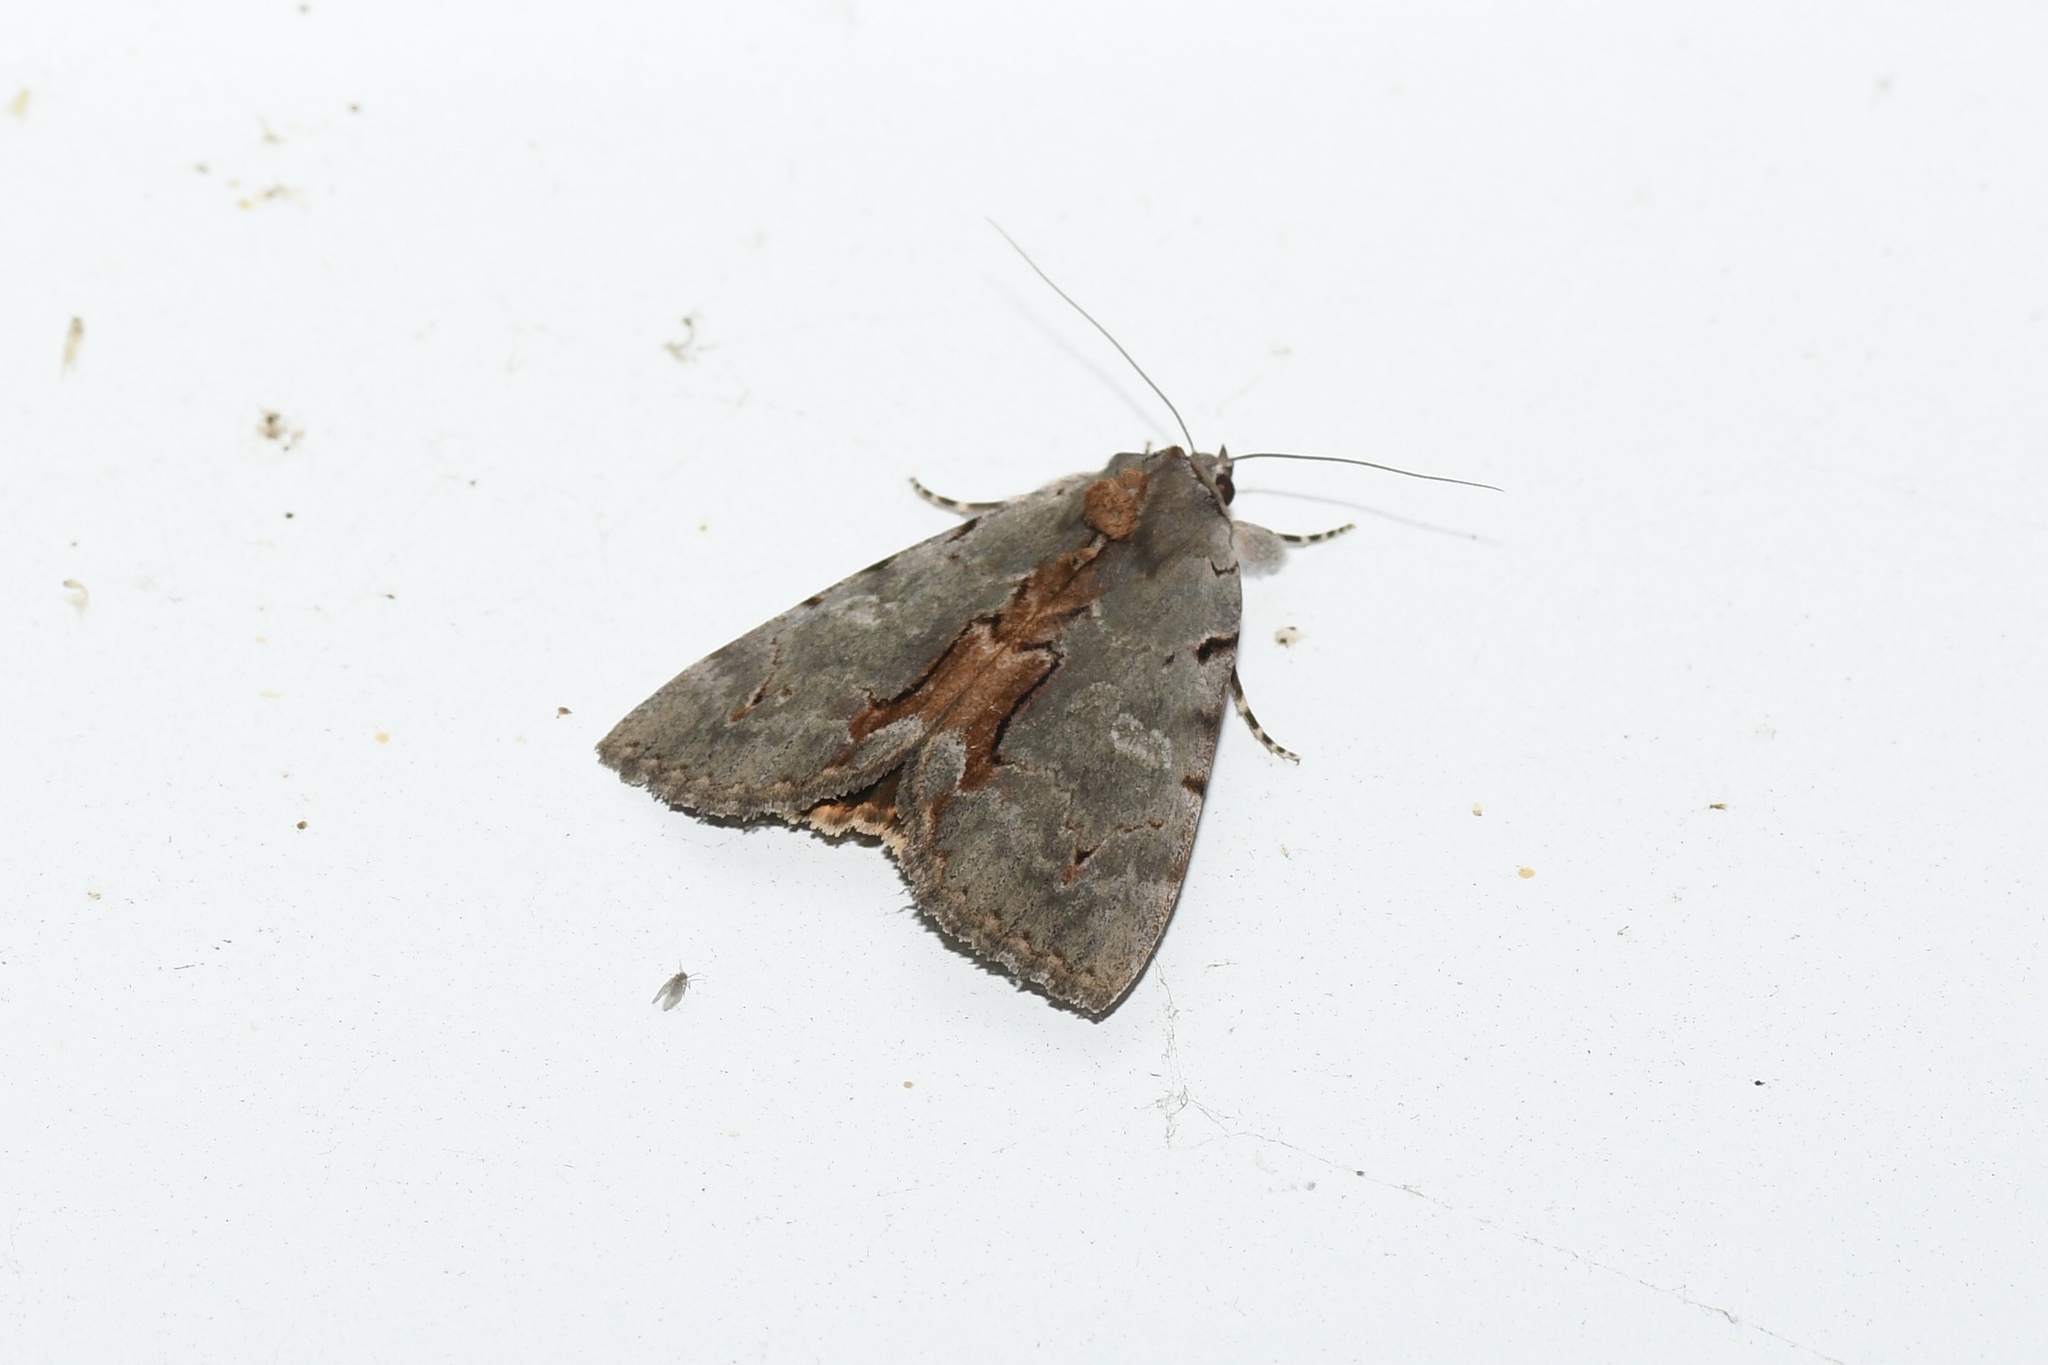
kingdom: Animalia
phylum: Arthropoda
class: Insecta
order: Lepidoptera
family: Erebidae
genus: Catocala
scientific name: Catocala grynea
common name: Woody underwing
